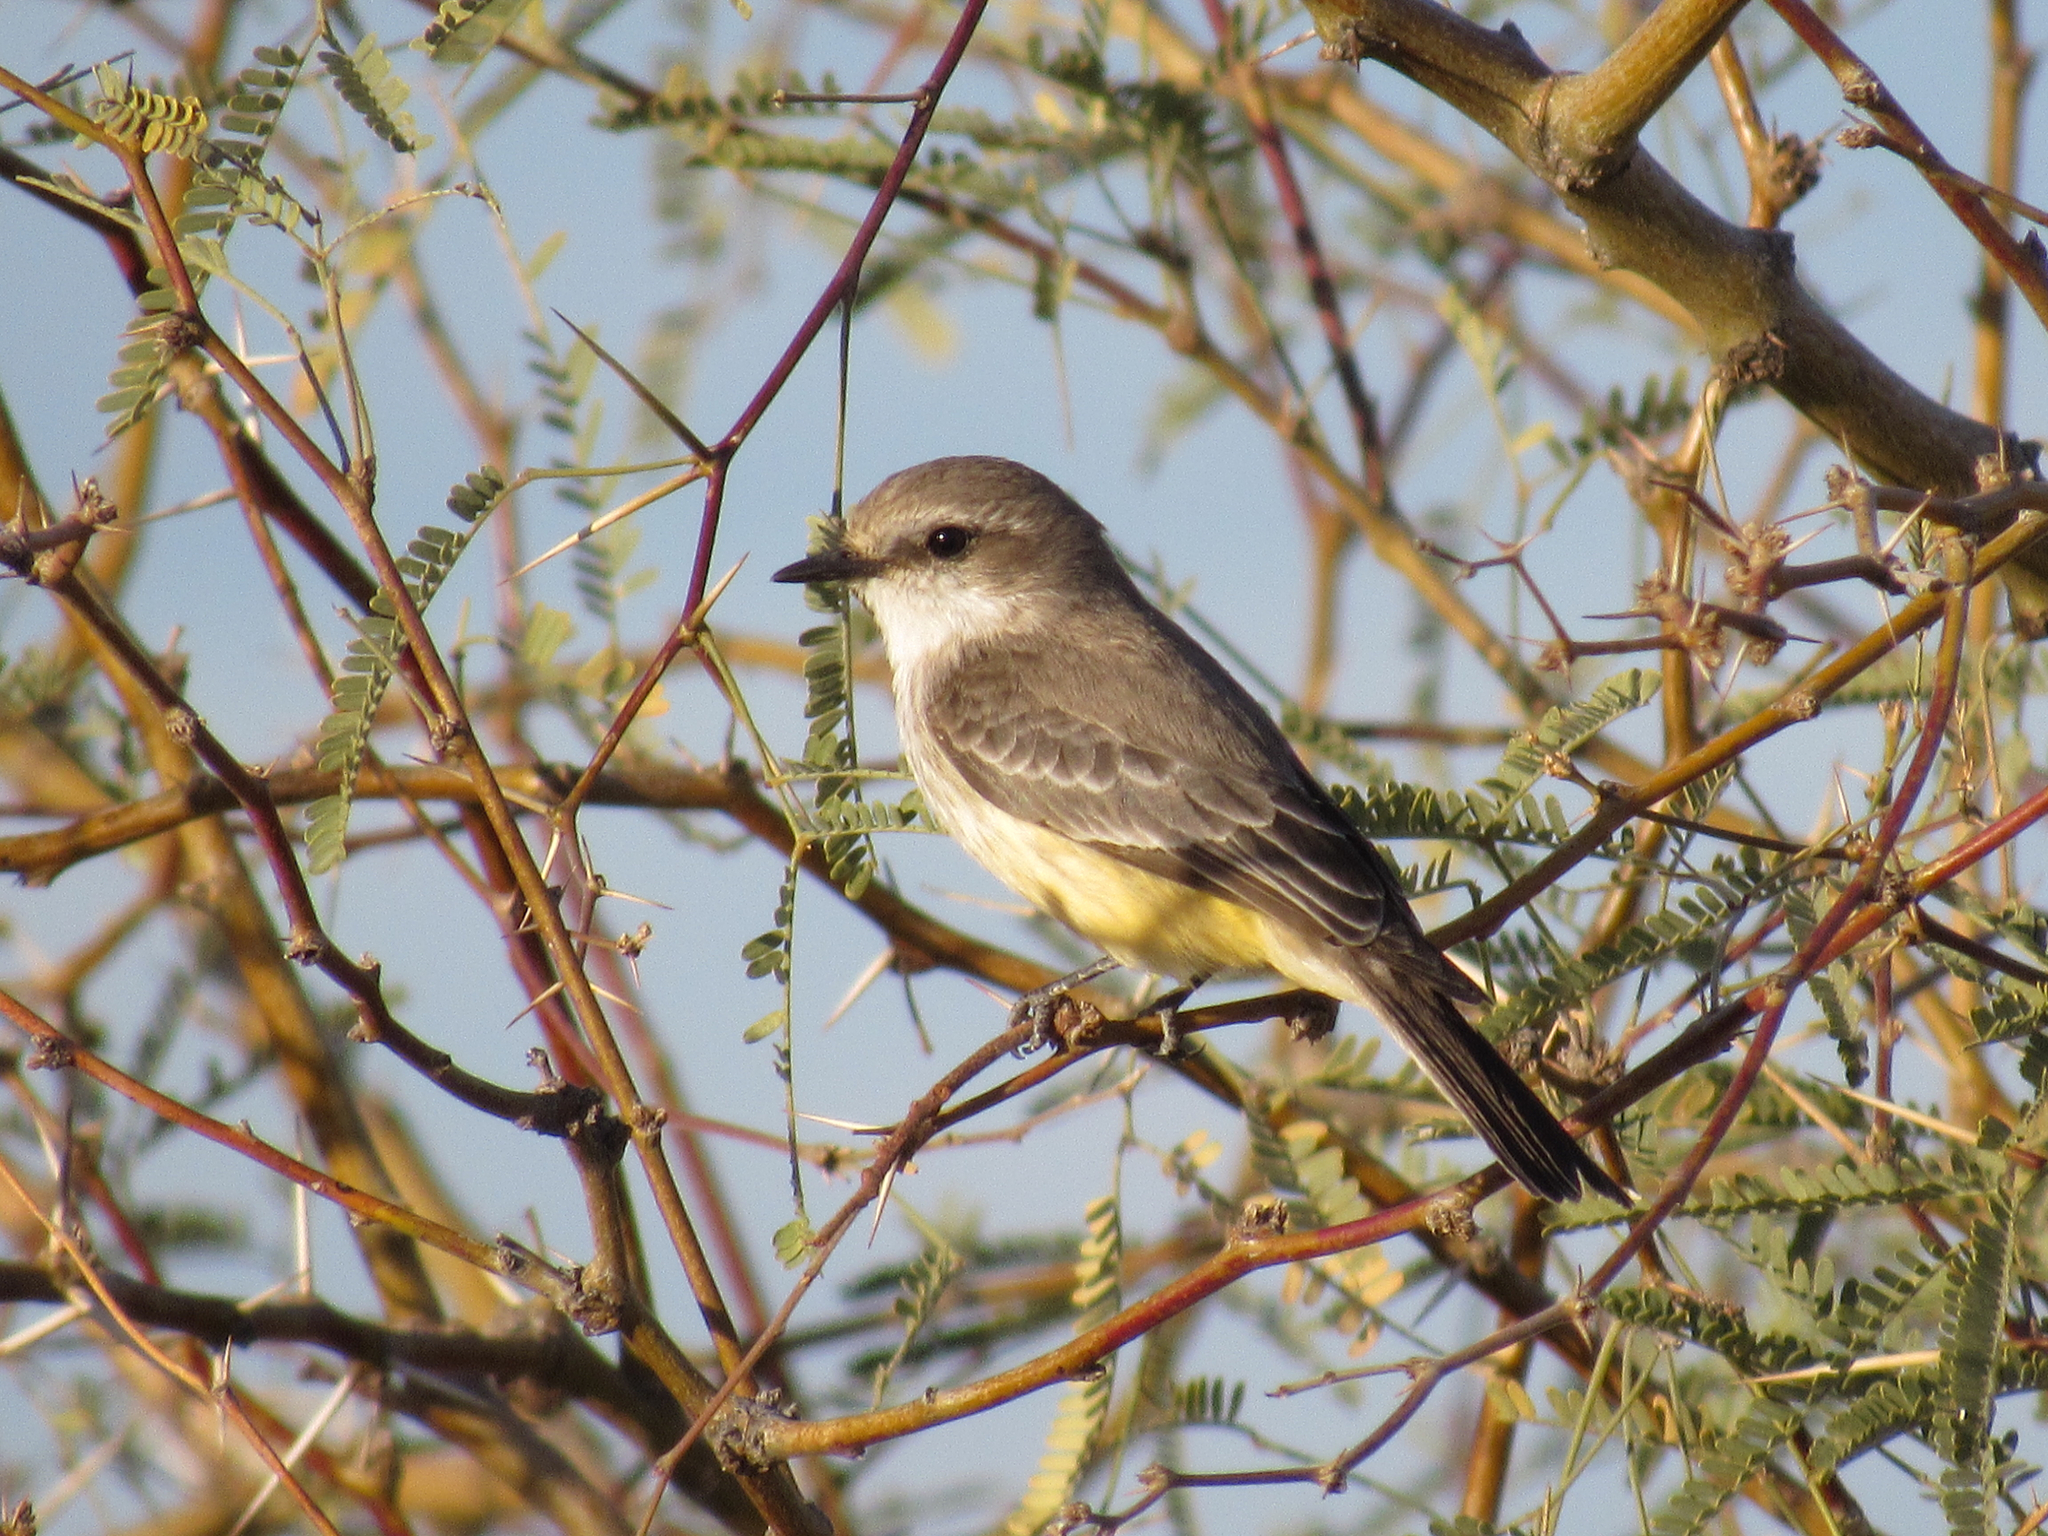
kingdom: Animalia
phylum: Chordata
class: Aves
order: Passeriformes
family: Tyrannidae
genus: Pyrocephalus
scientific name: Pyrocephalus rubinus
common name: Vermilion flycatcher
